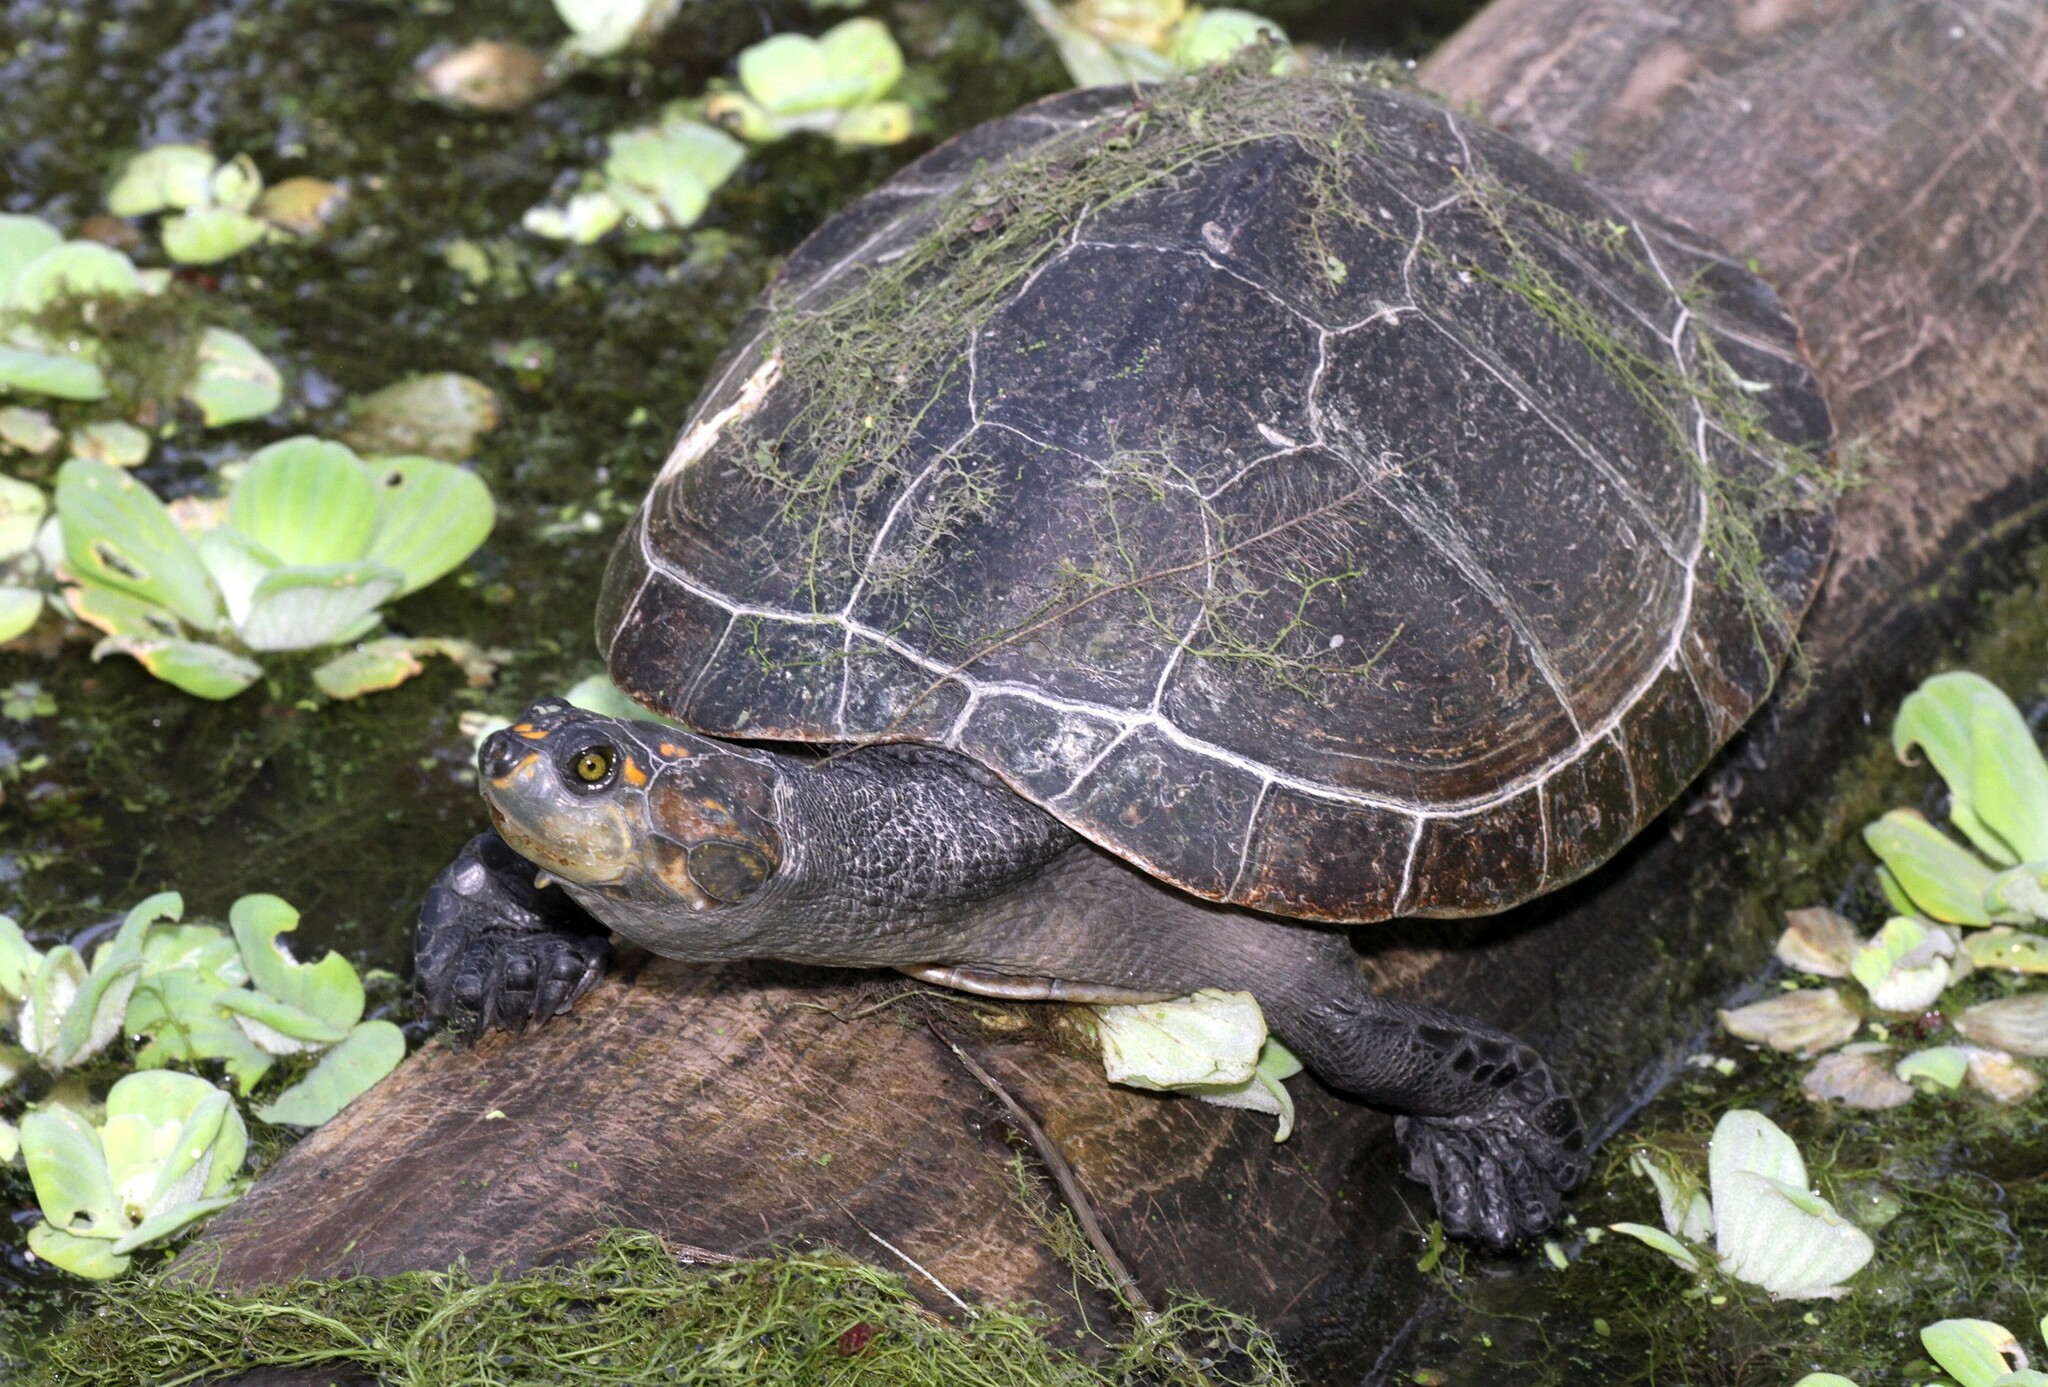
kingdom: Animalia
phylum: Chordata
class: Testudines
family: Podocnemididae
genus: Podocnemis
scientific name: Podocnemis unifilis
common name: Yellow-spotted amazon river turtle
